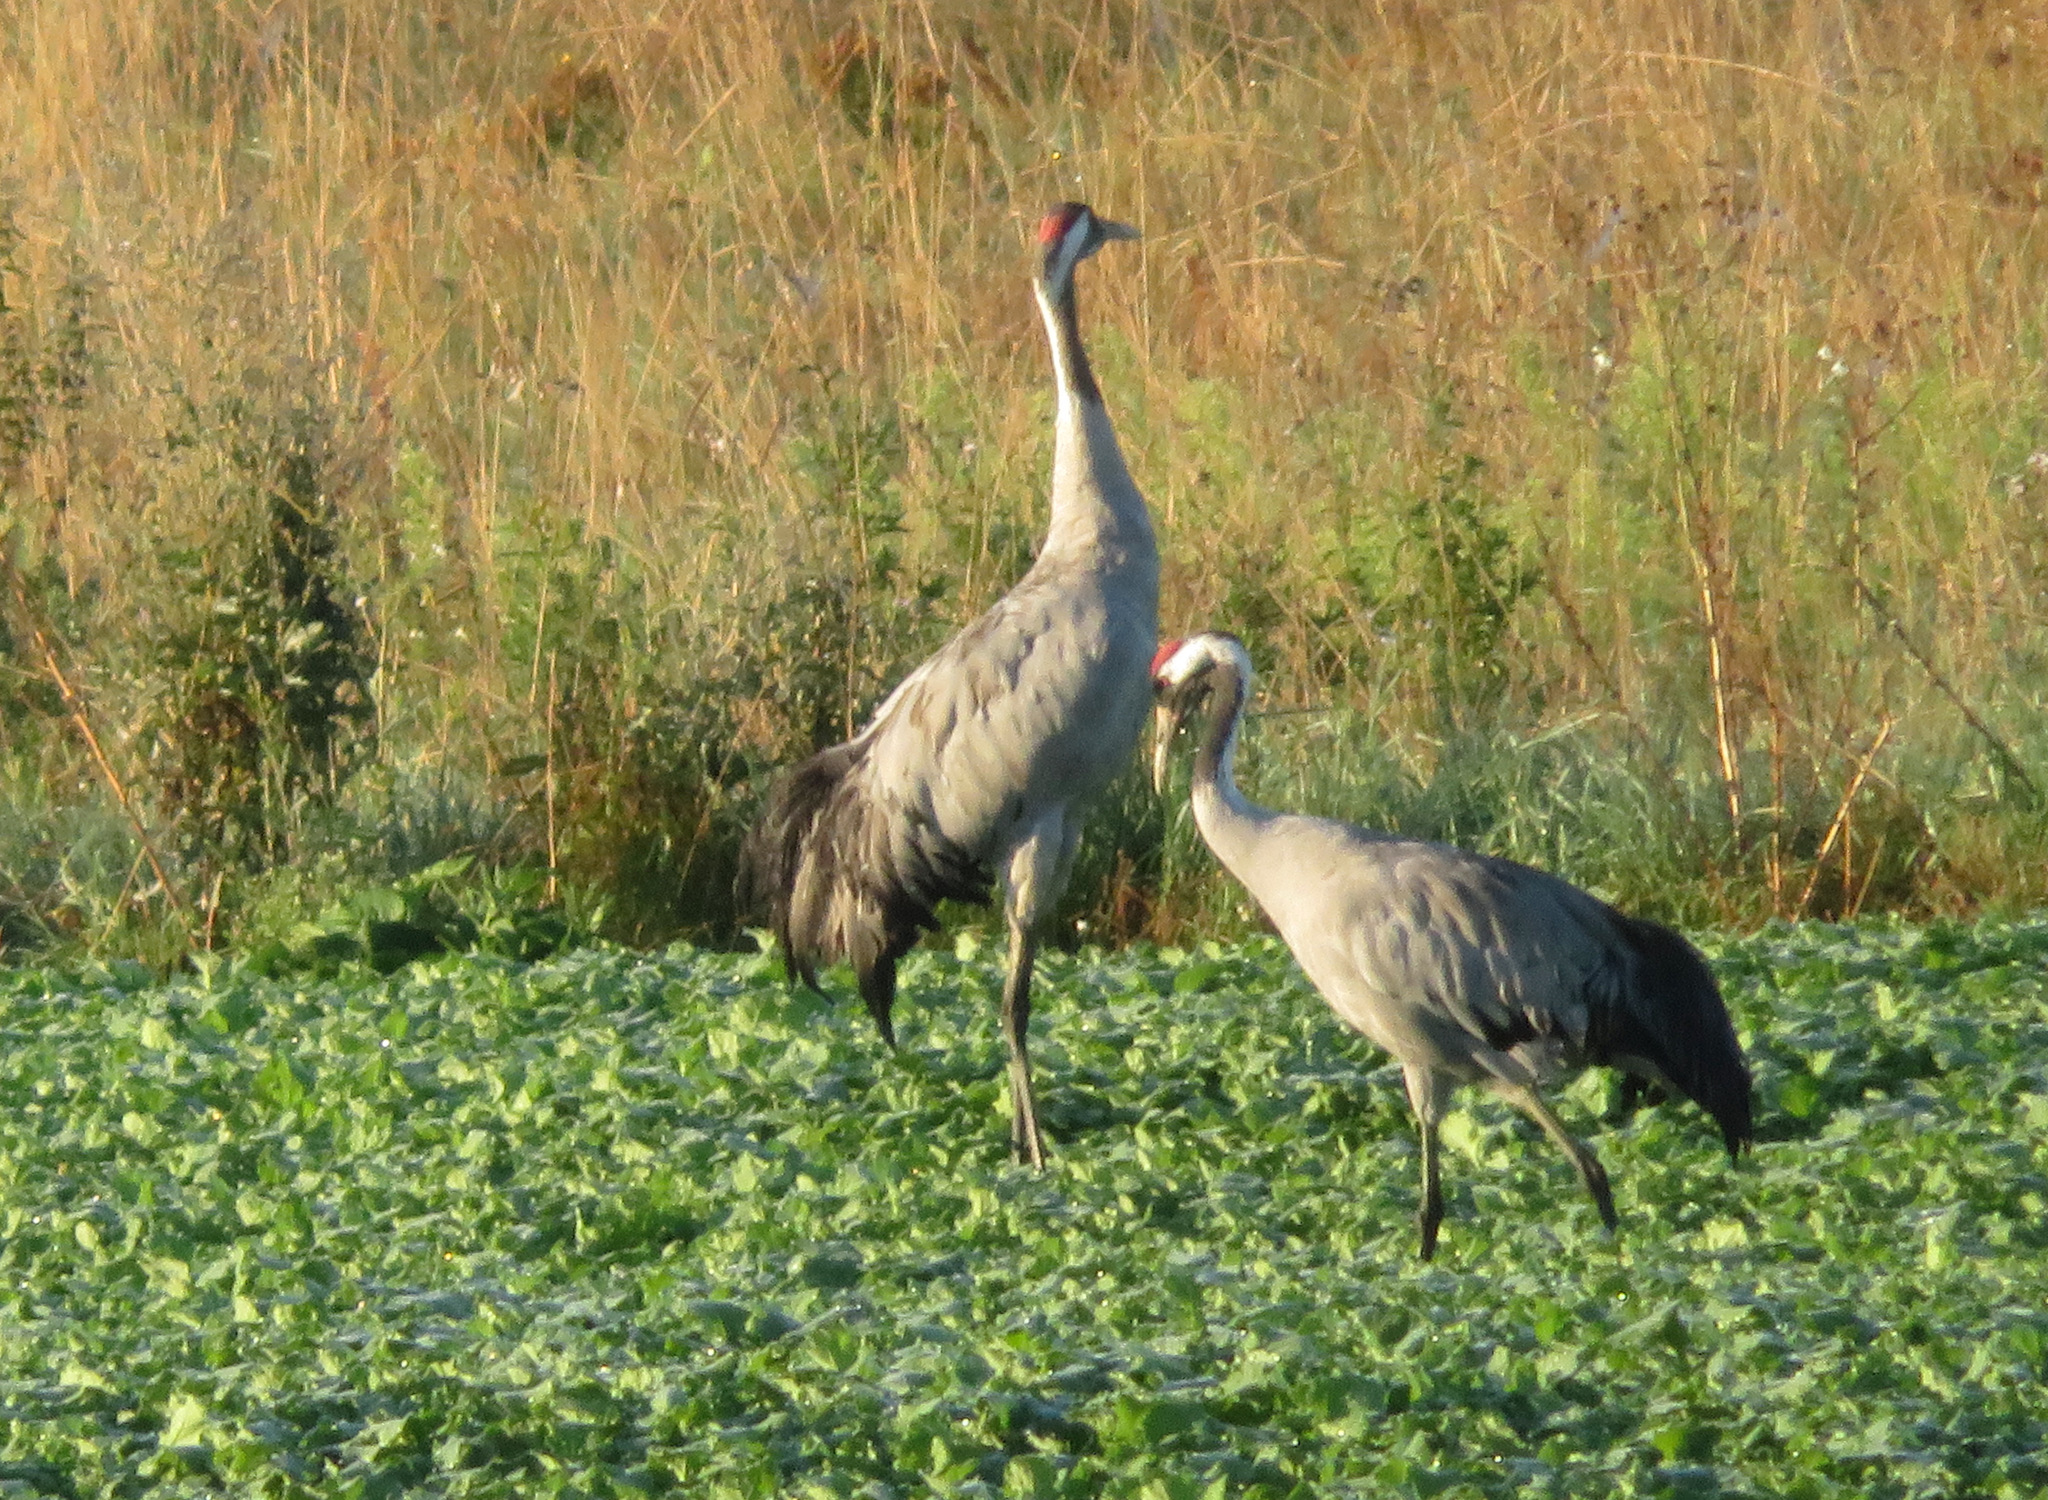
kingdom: Animalia
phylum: Chordata
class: Aves
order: Gruiformes
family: Gruidae
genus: Grus
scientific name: Grus grus
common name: Common crane
